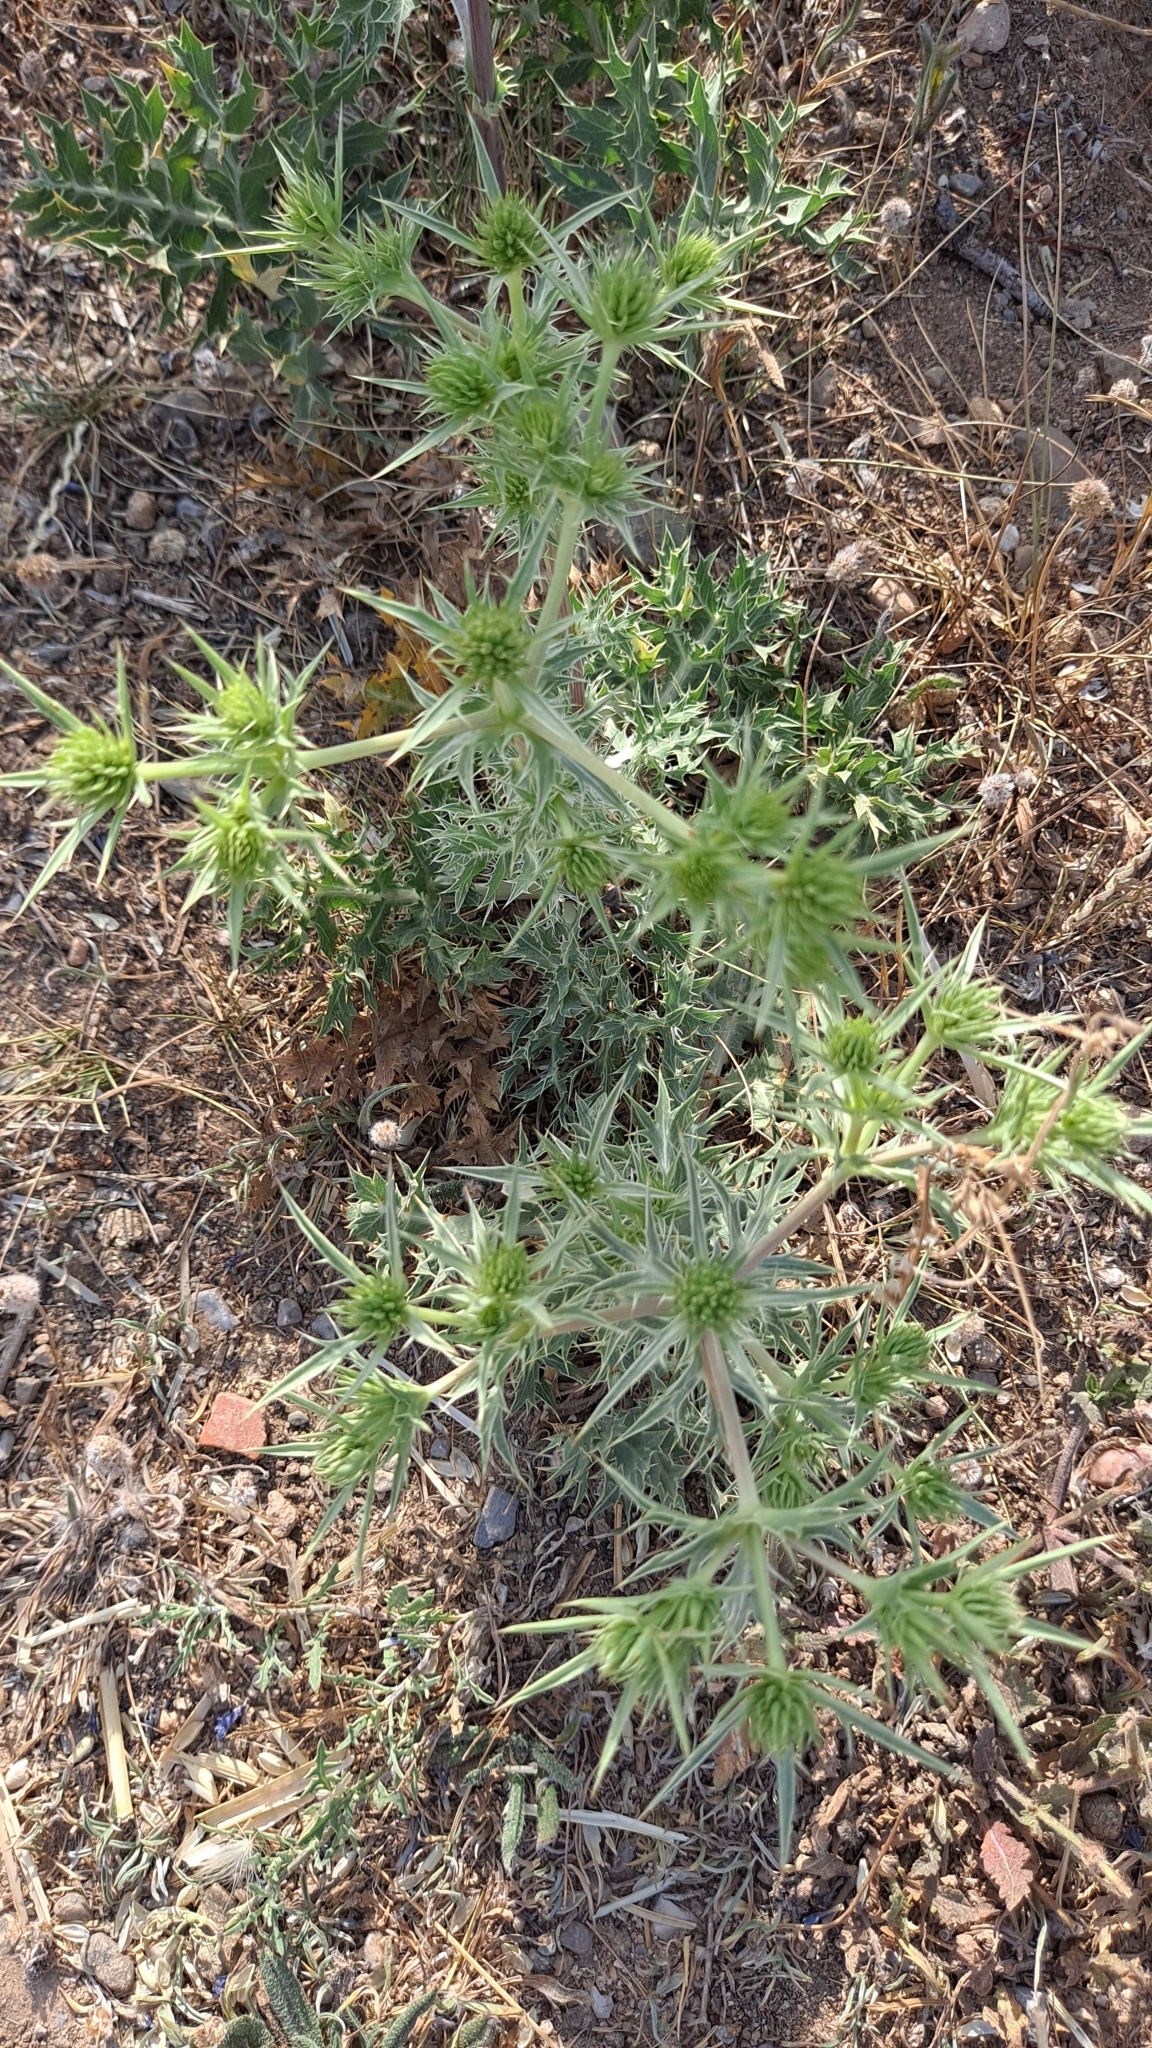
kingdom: Plantae
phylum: Tracheophyta
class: Magnoliopsida
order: Apiales
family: Apiaceae
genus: Eryngium
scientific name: Eryngium campestre
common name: Field eryngo
